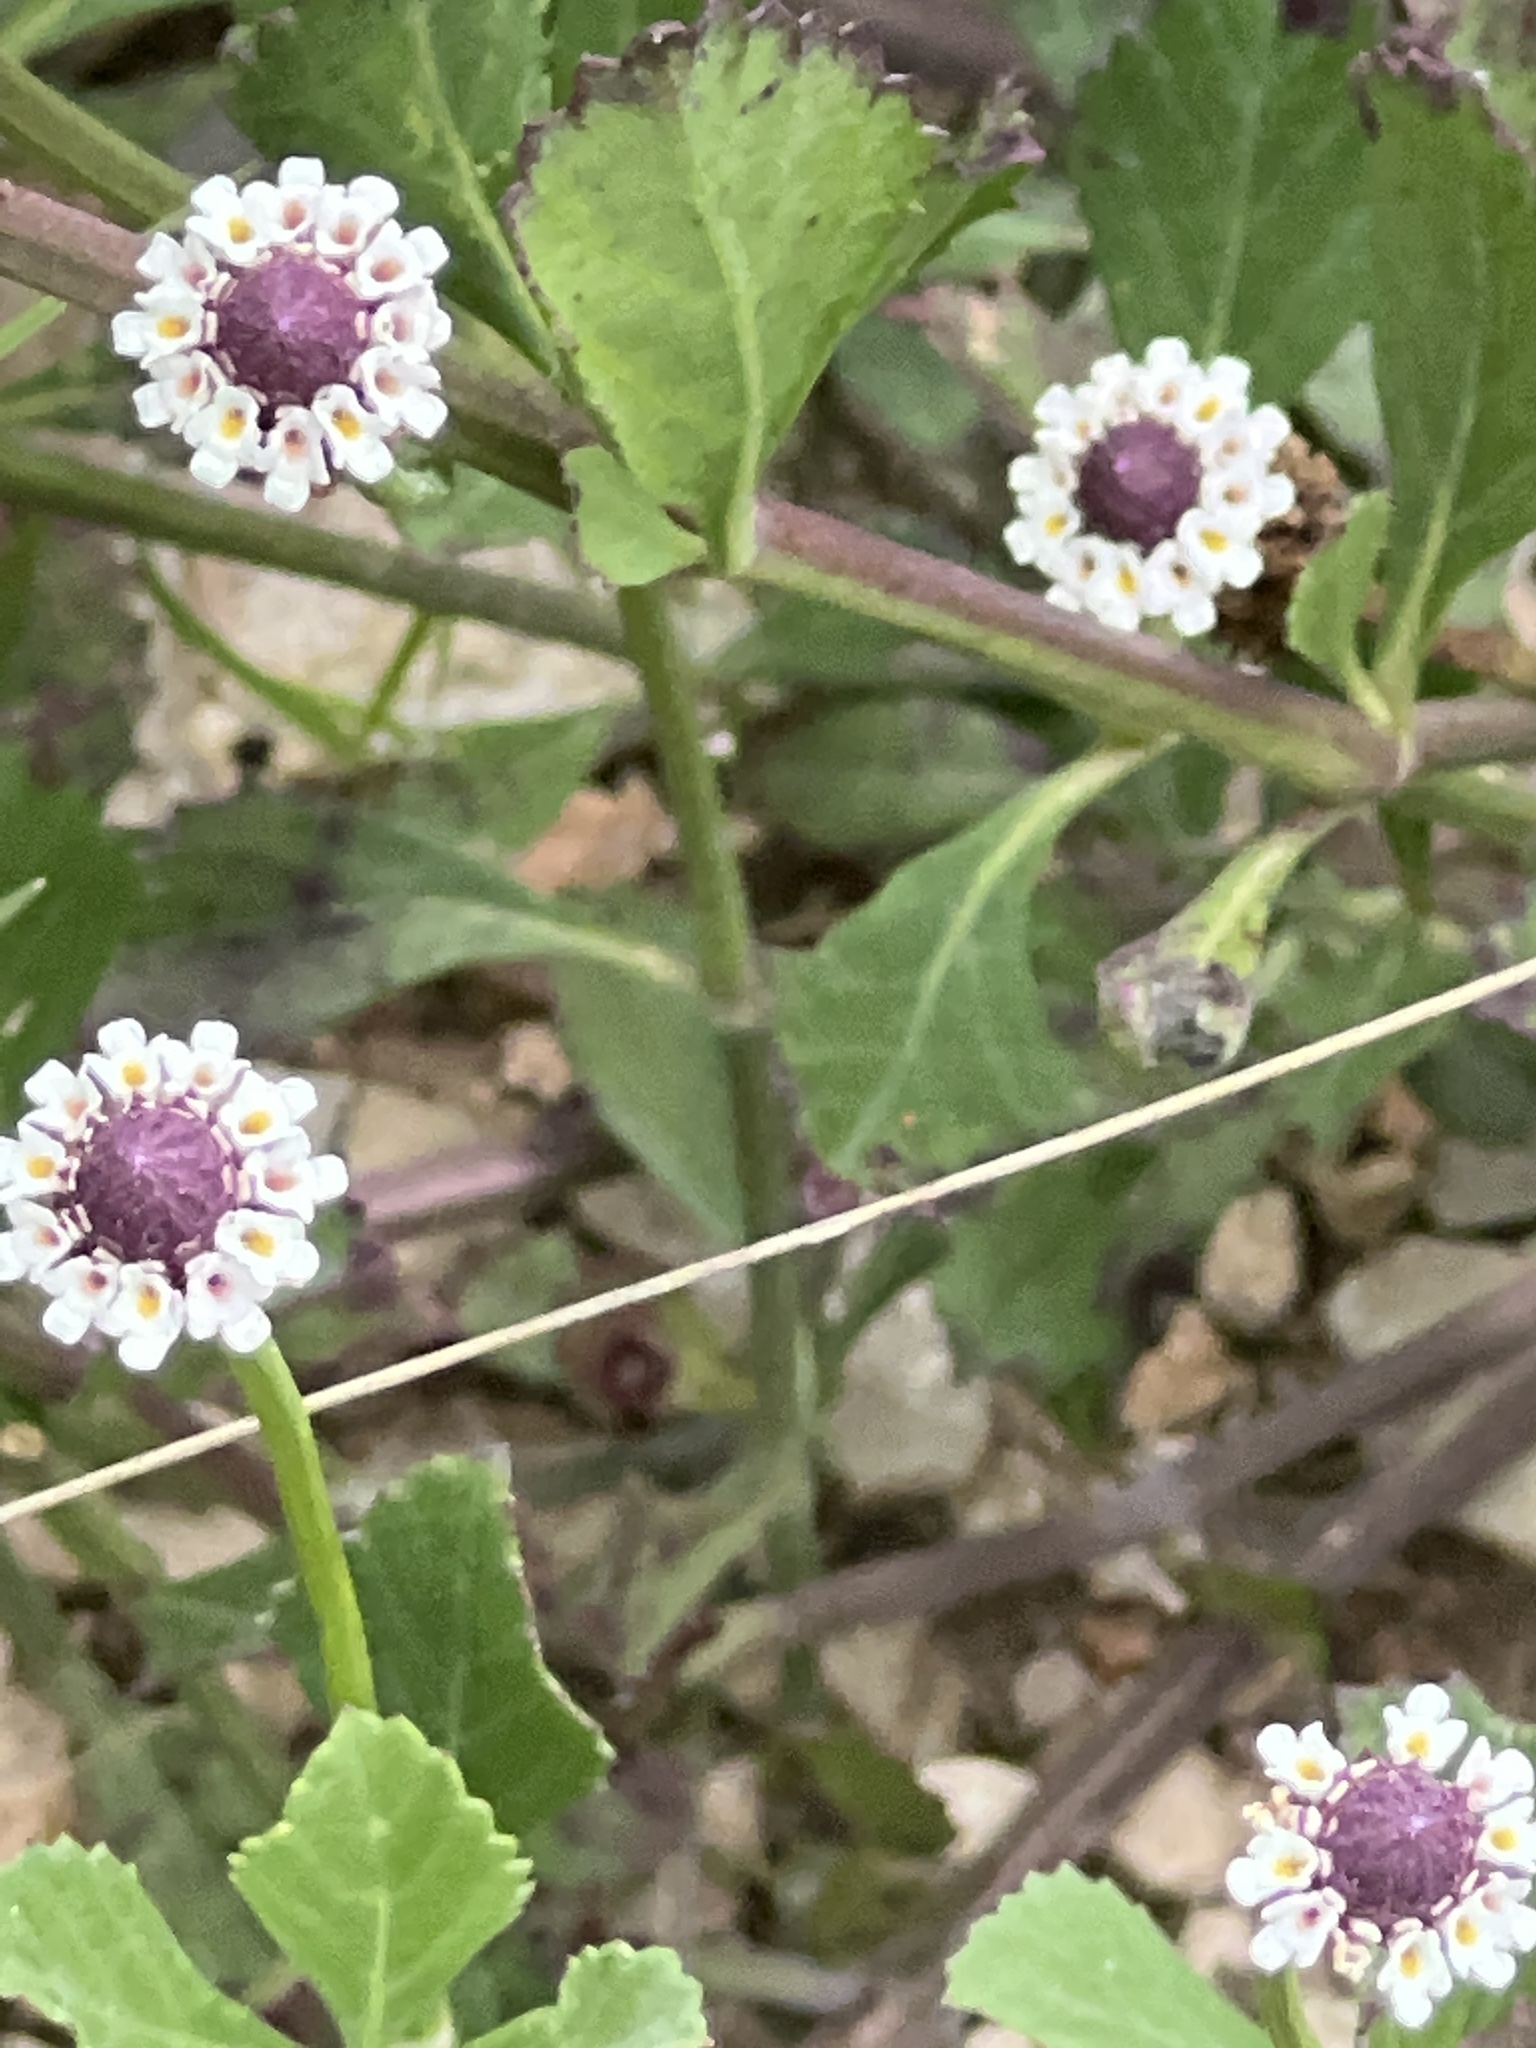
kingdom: Plantae
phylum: Tracheophyta
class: Magnoliopsida
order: Lamiales
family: Verbenaceae
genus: Phyla
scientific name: Phyla nodiflora
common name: Frogfruit
